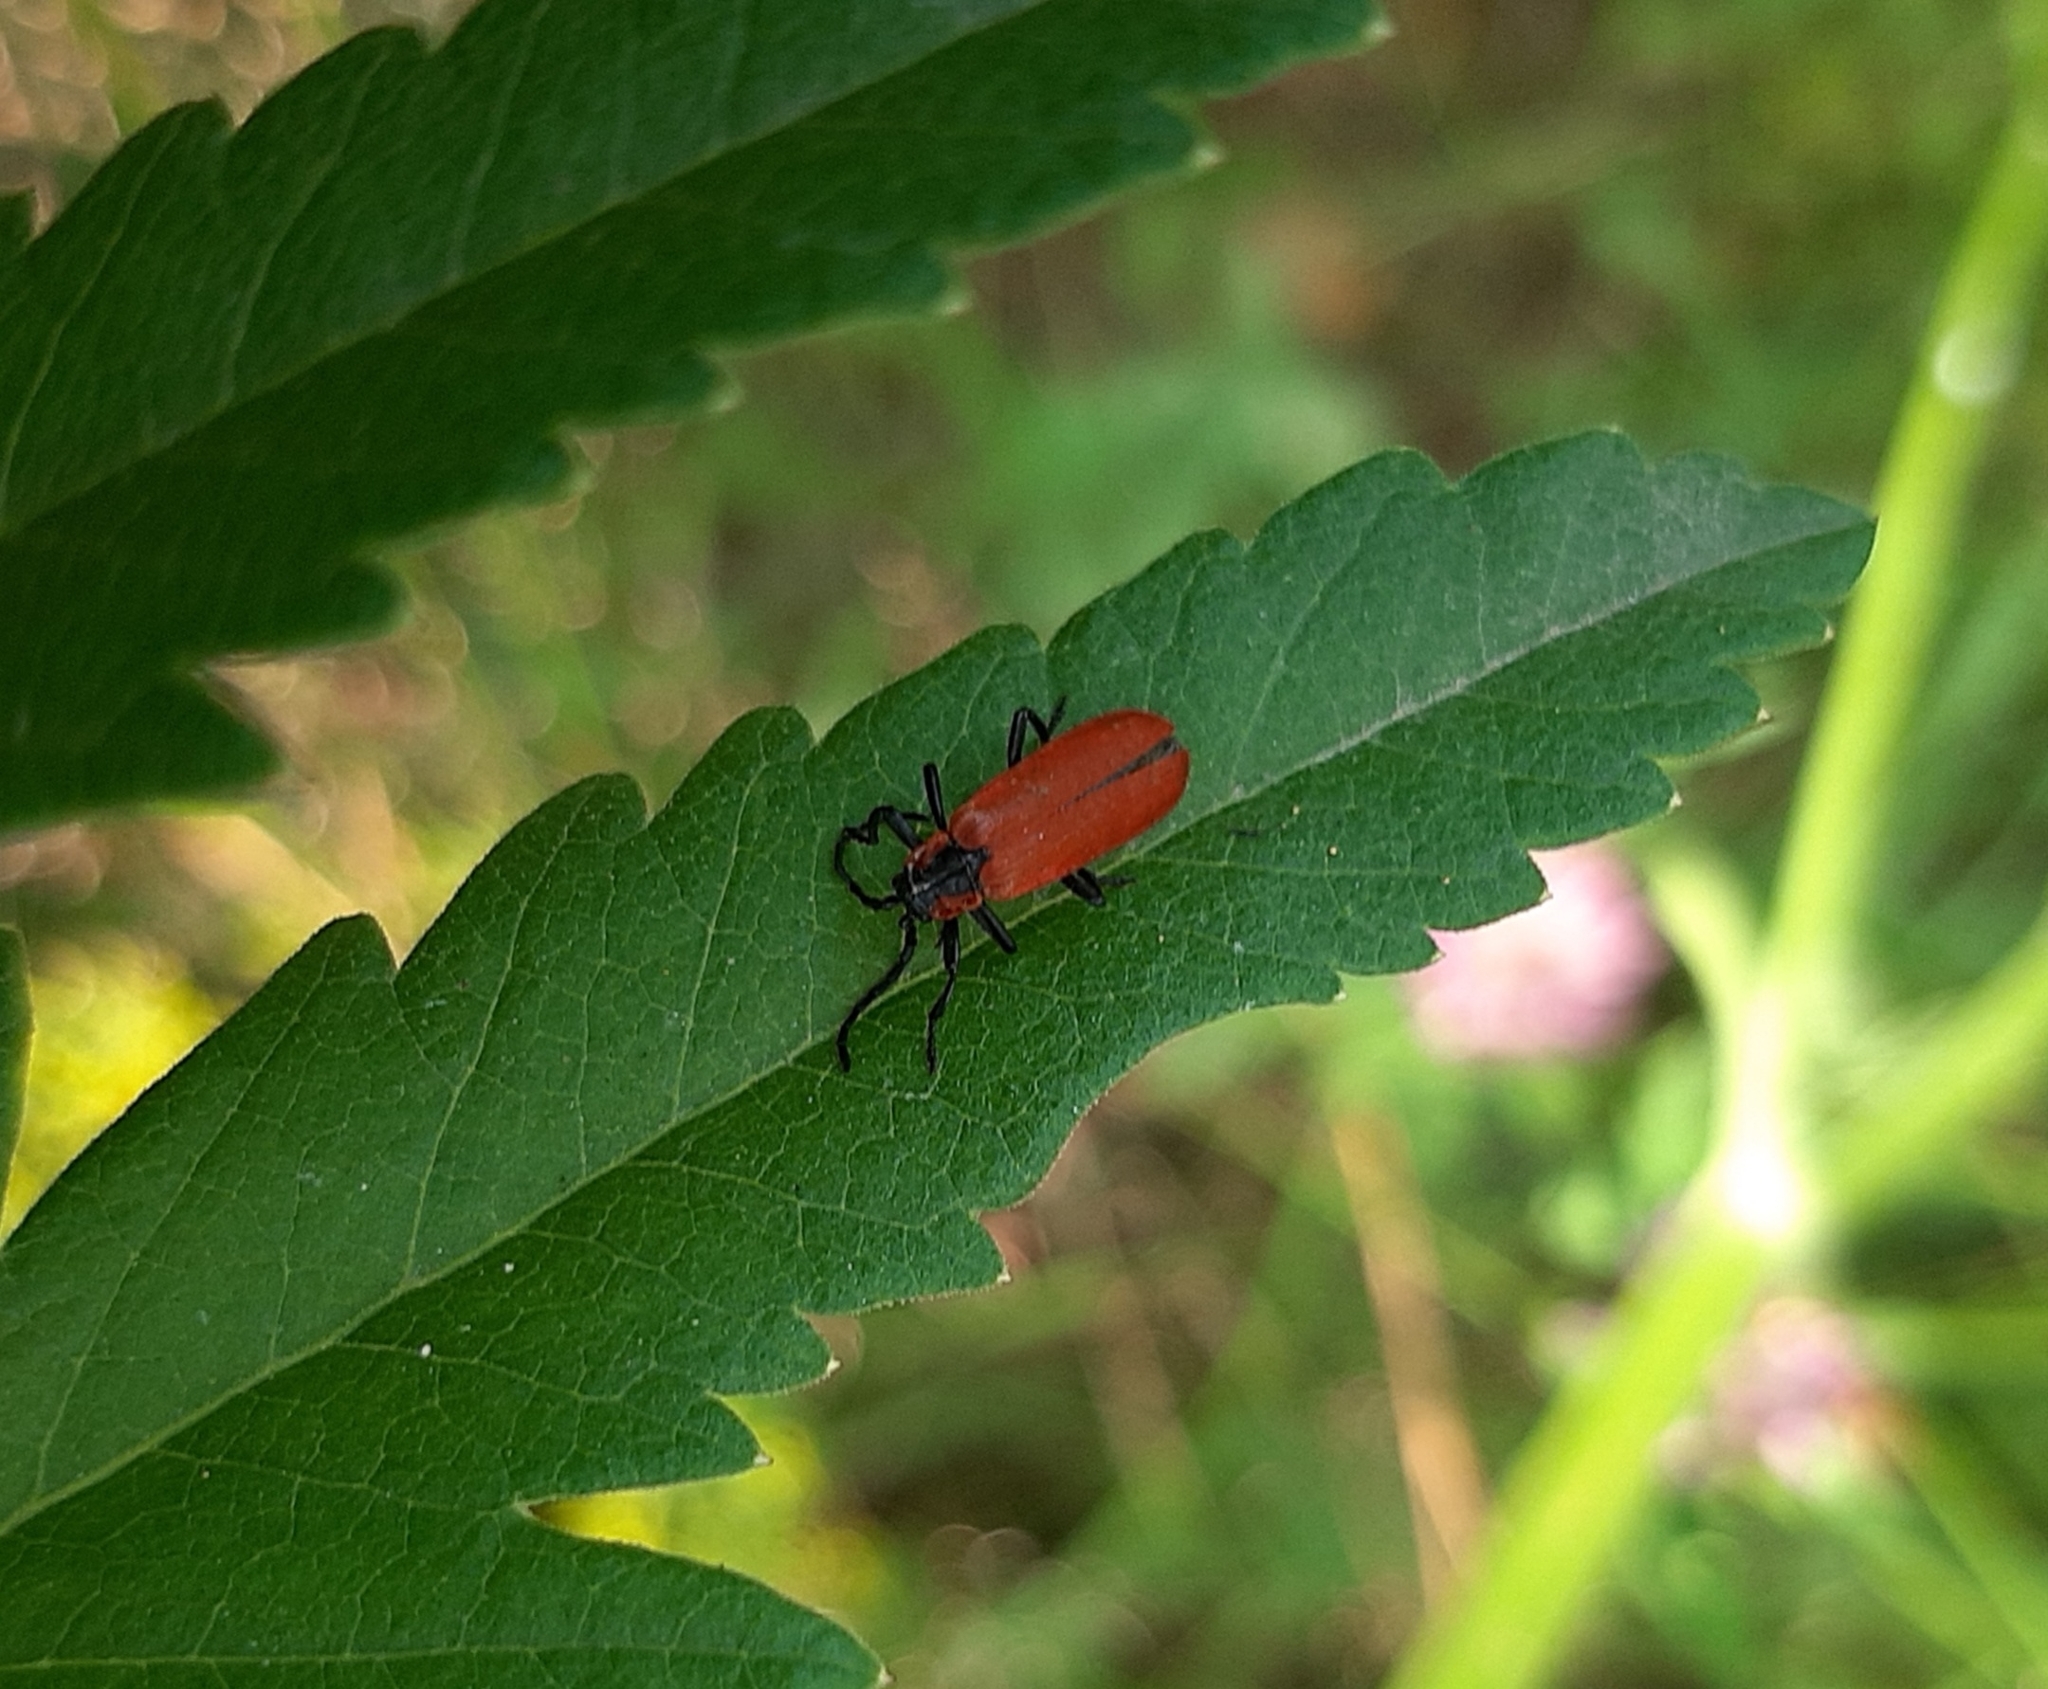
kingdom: Animalia
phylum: Arthropoda
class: Insecta
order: Coleoptera
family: Lycidae
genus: Lygistopterus
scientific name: Lygistopterus sanguineus
